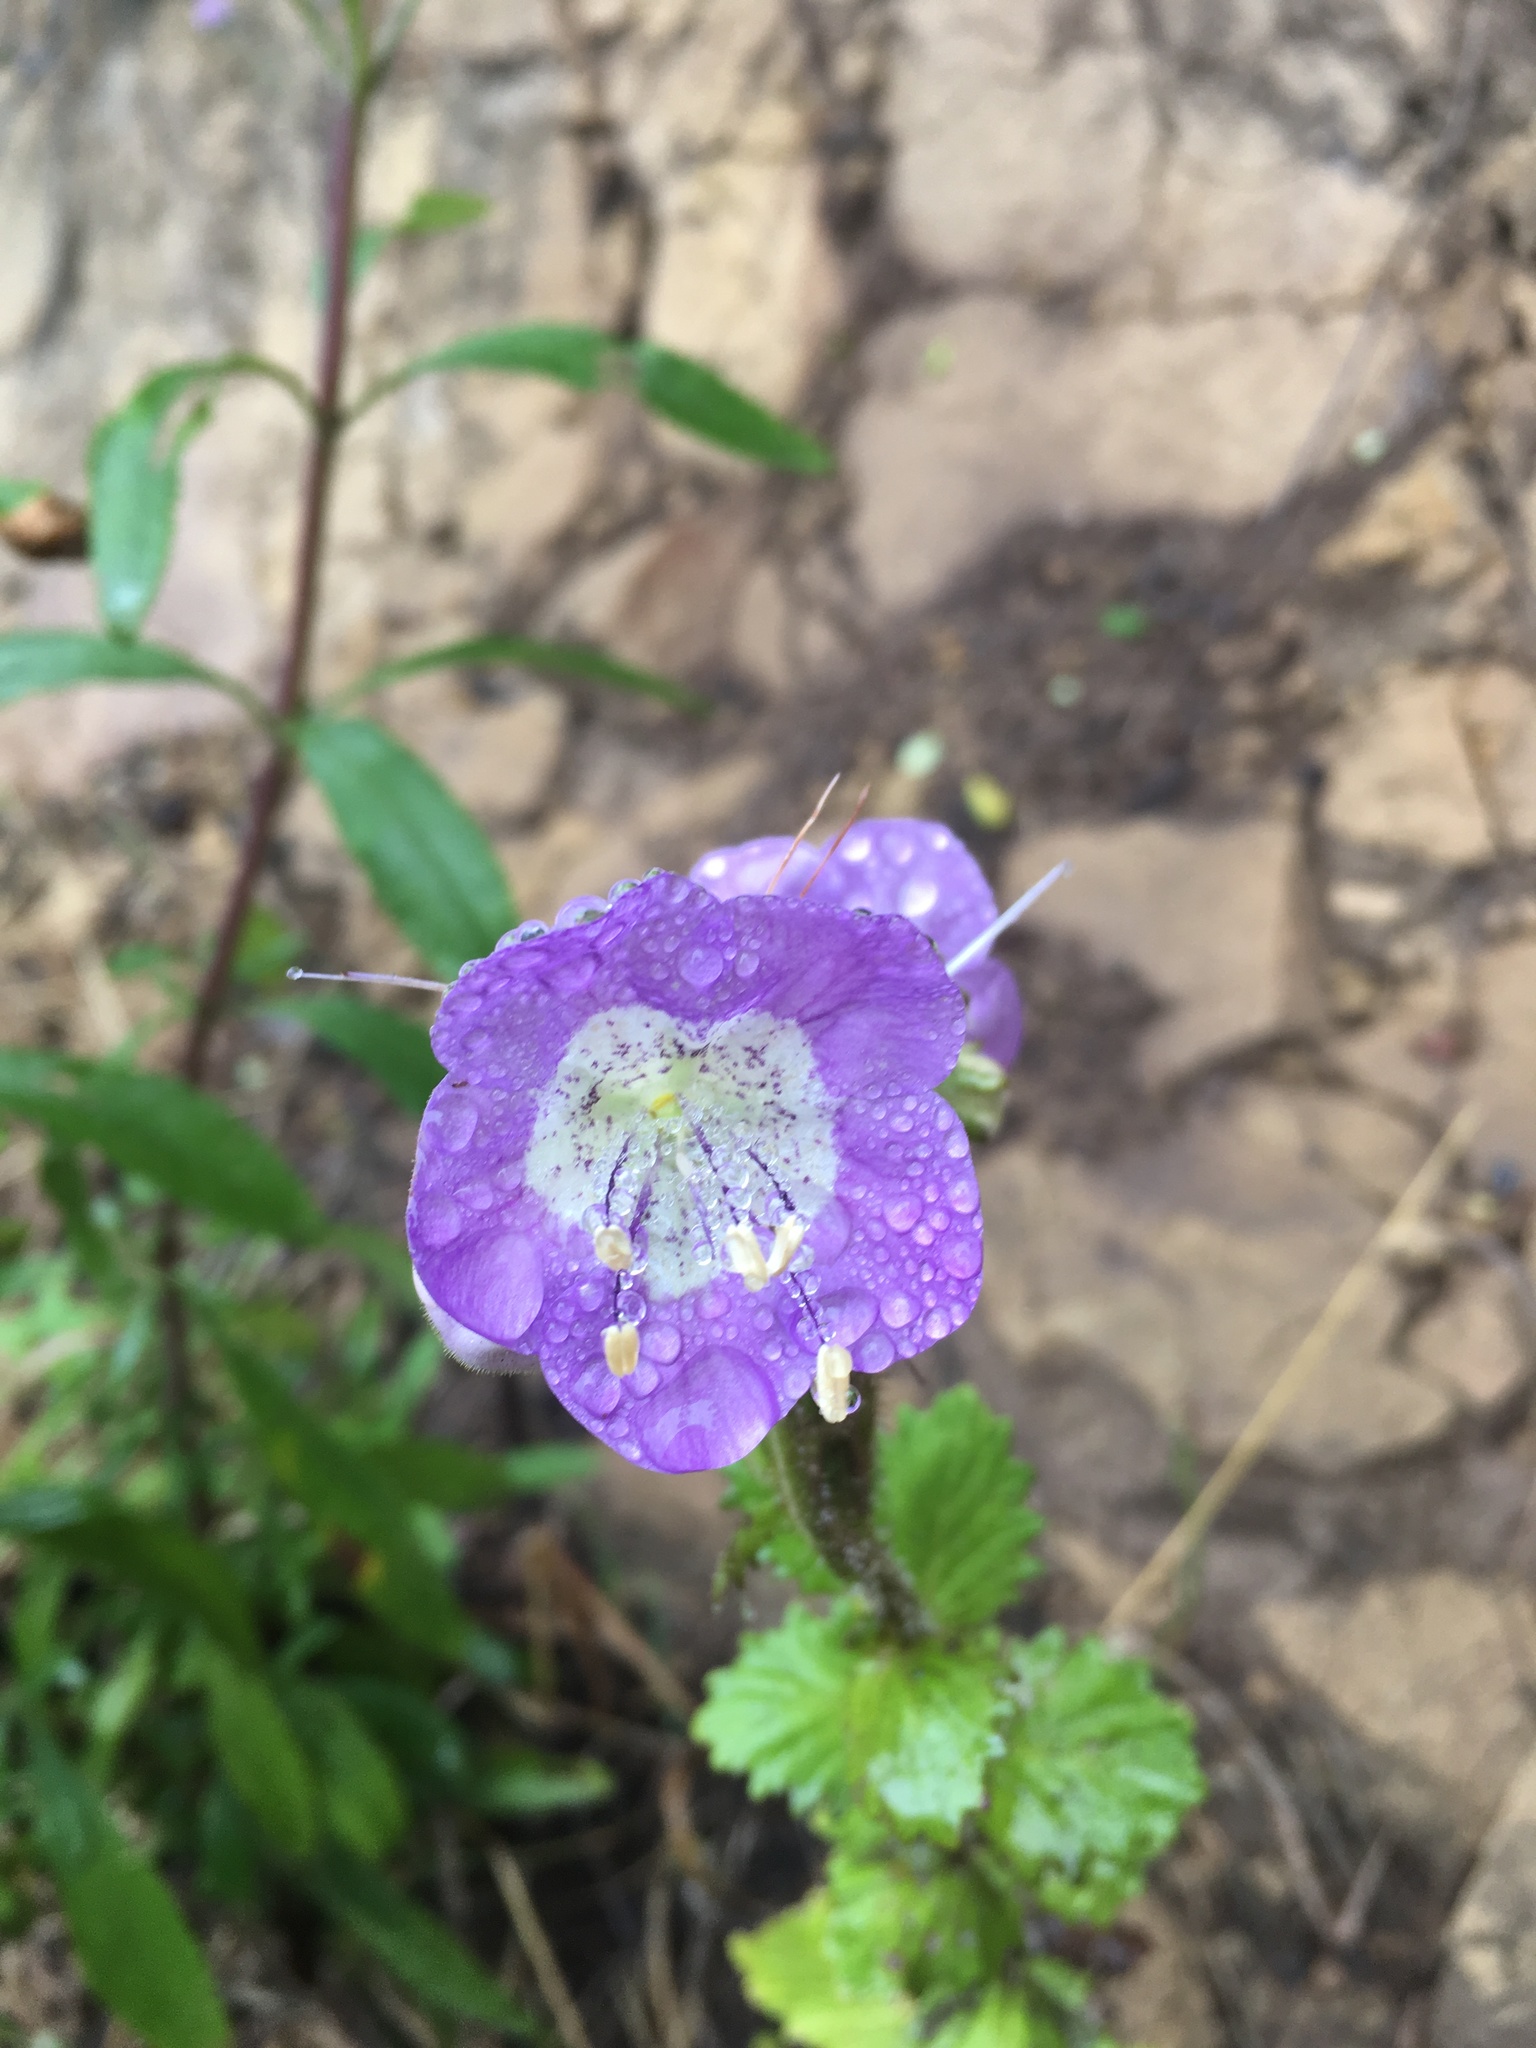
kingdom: Plantae
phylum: Tracheophyta
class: Magnoliopsida
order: Boraginales
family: Hydrophyllaceae
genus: Phacelia
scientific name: Phacelia grandiflora
